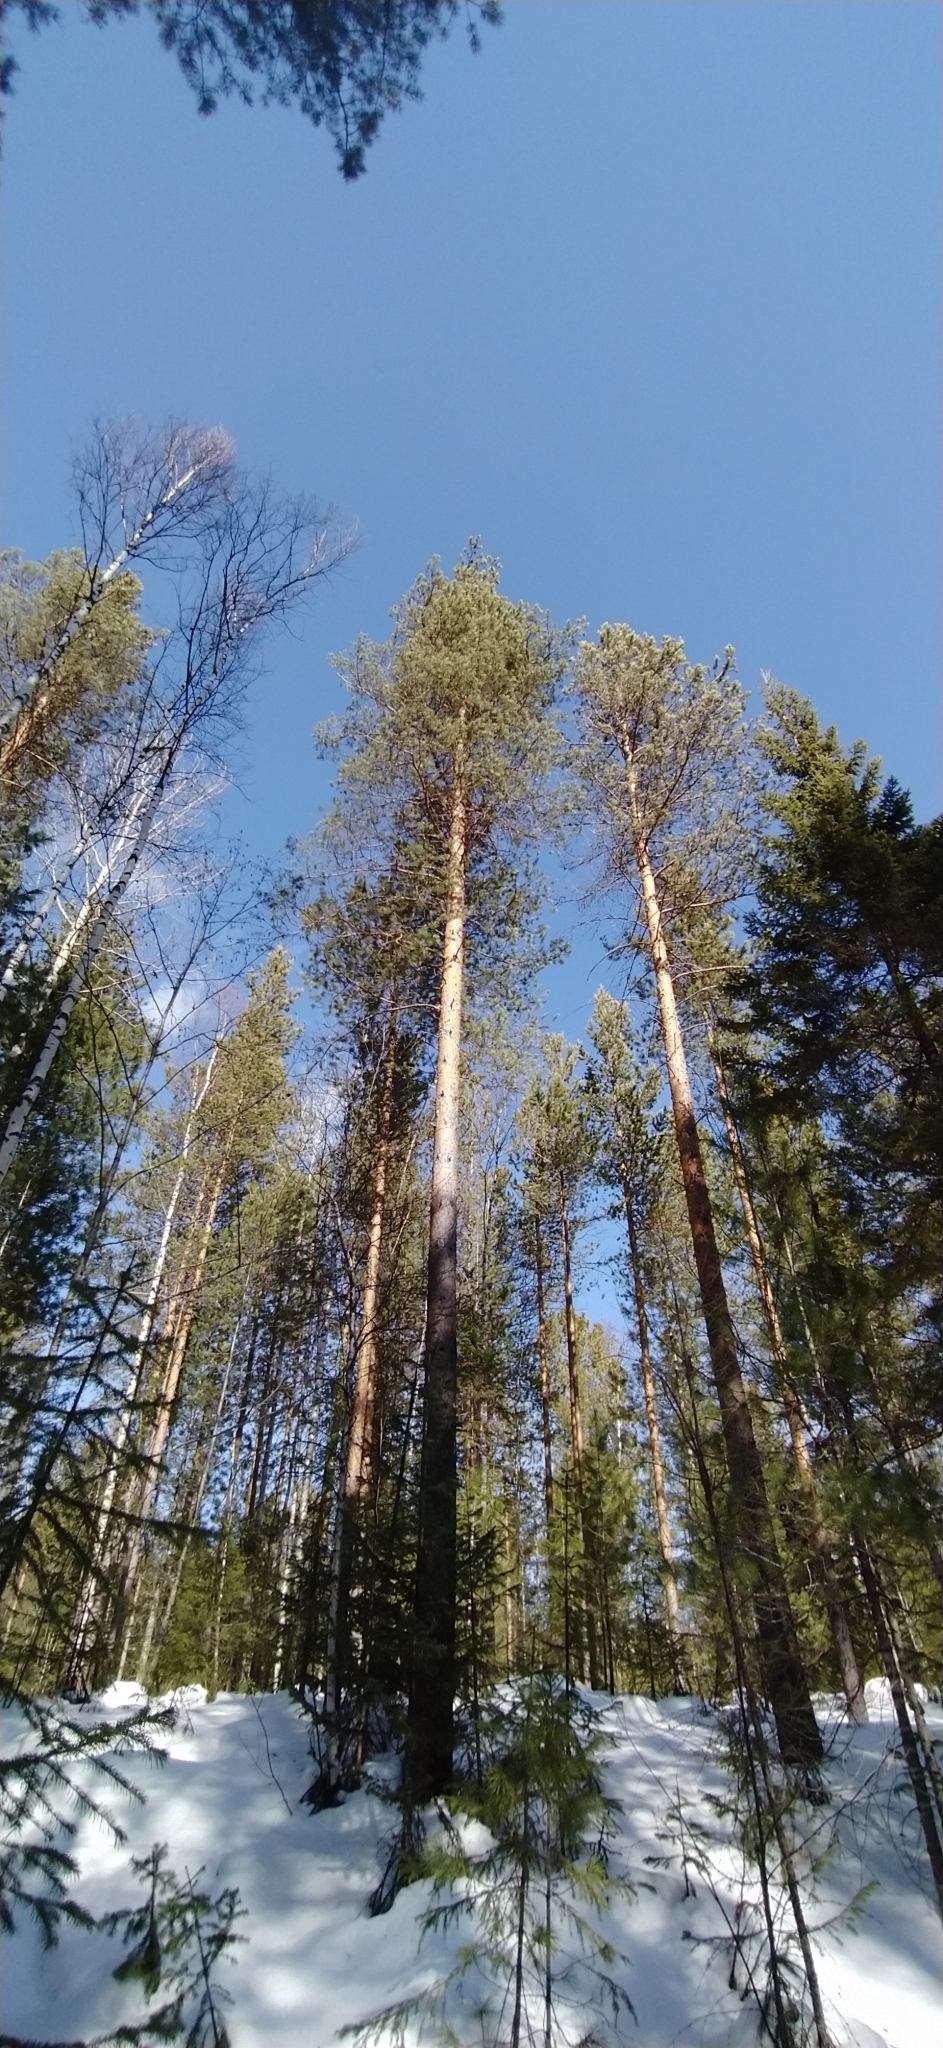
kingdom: Plantae
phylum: Tracheophyta
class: Pinopsida
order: Pinales
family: Pinaceae
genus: Pinus
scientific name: Pinus sylvestris
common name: Scots pine
